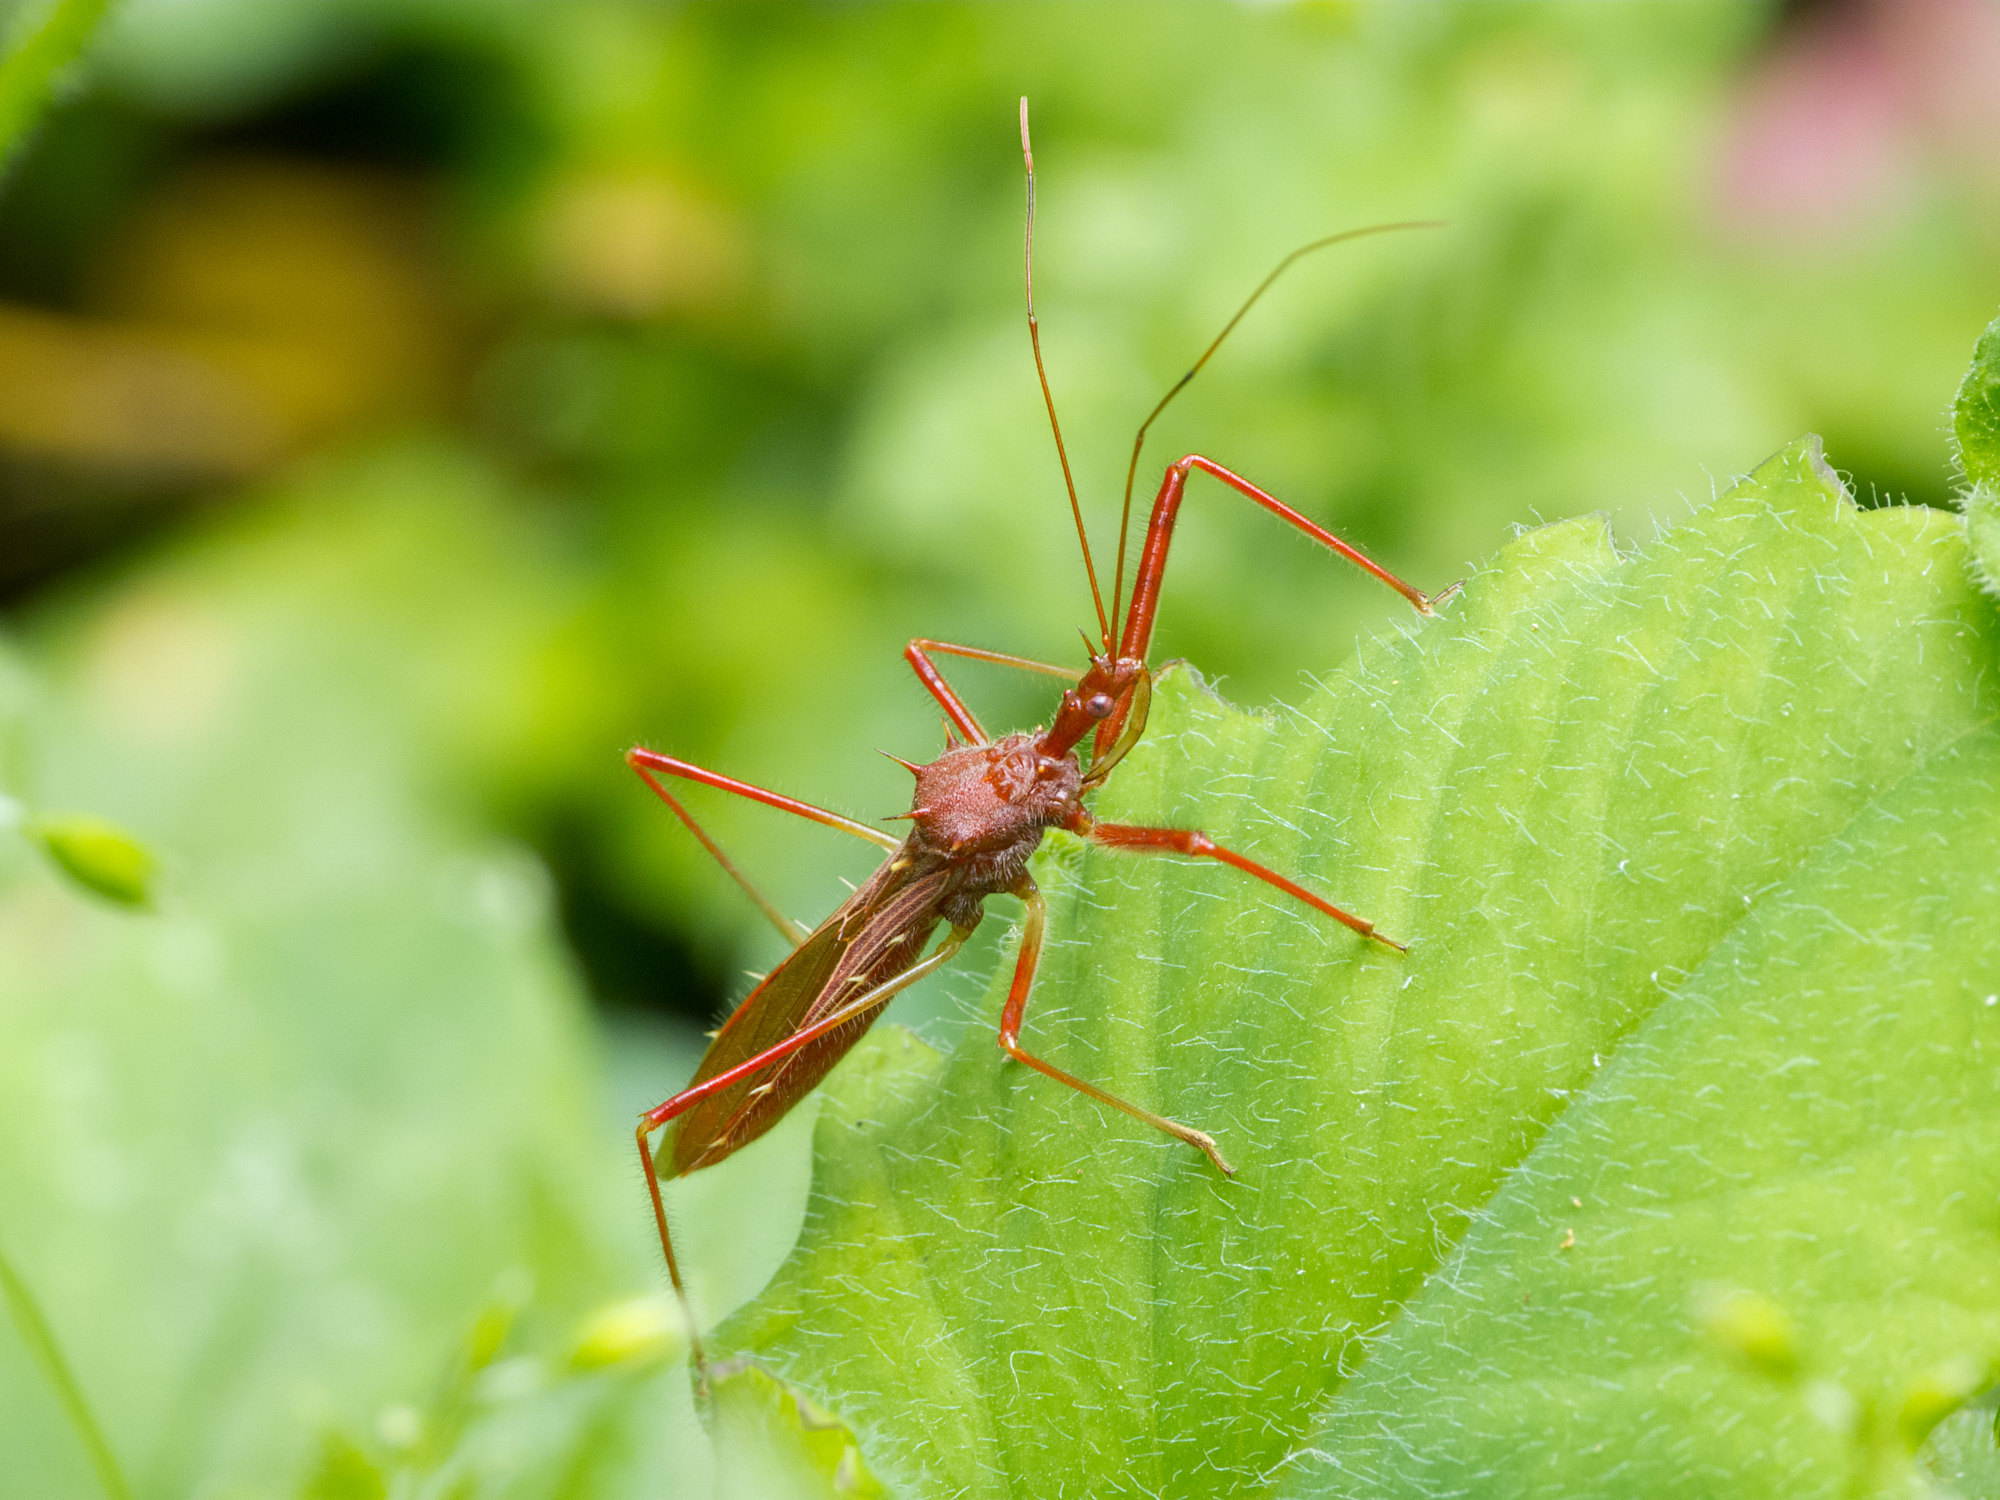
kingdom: Animalia
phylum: Arthropoda
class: Insecta
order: Hemiptera
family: Reduviidae
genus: Ricolla
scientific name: Ricolla pallidinervis
